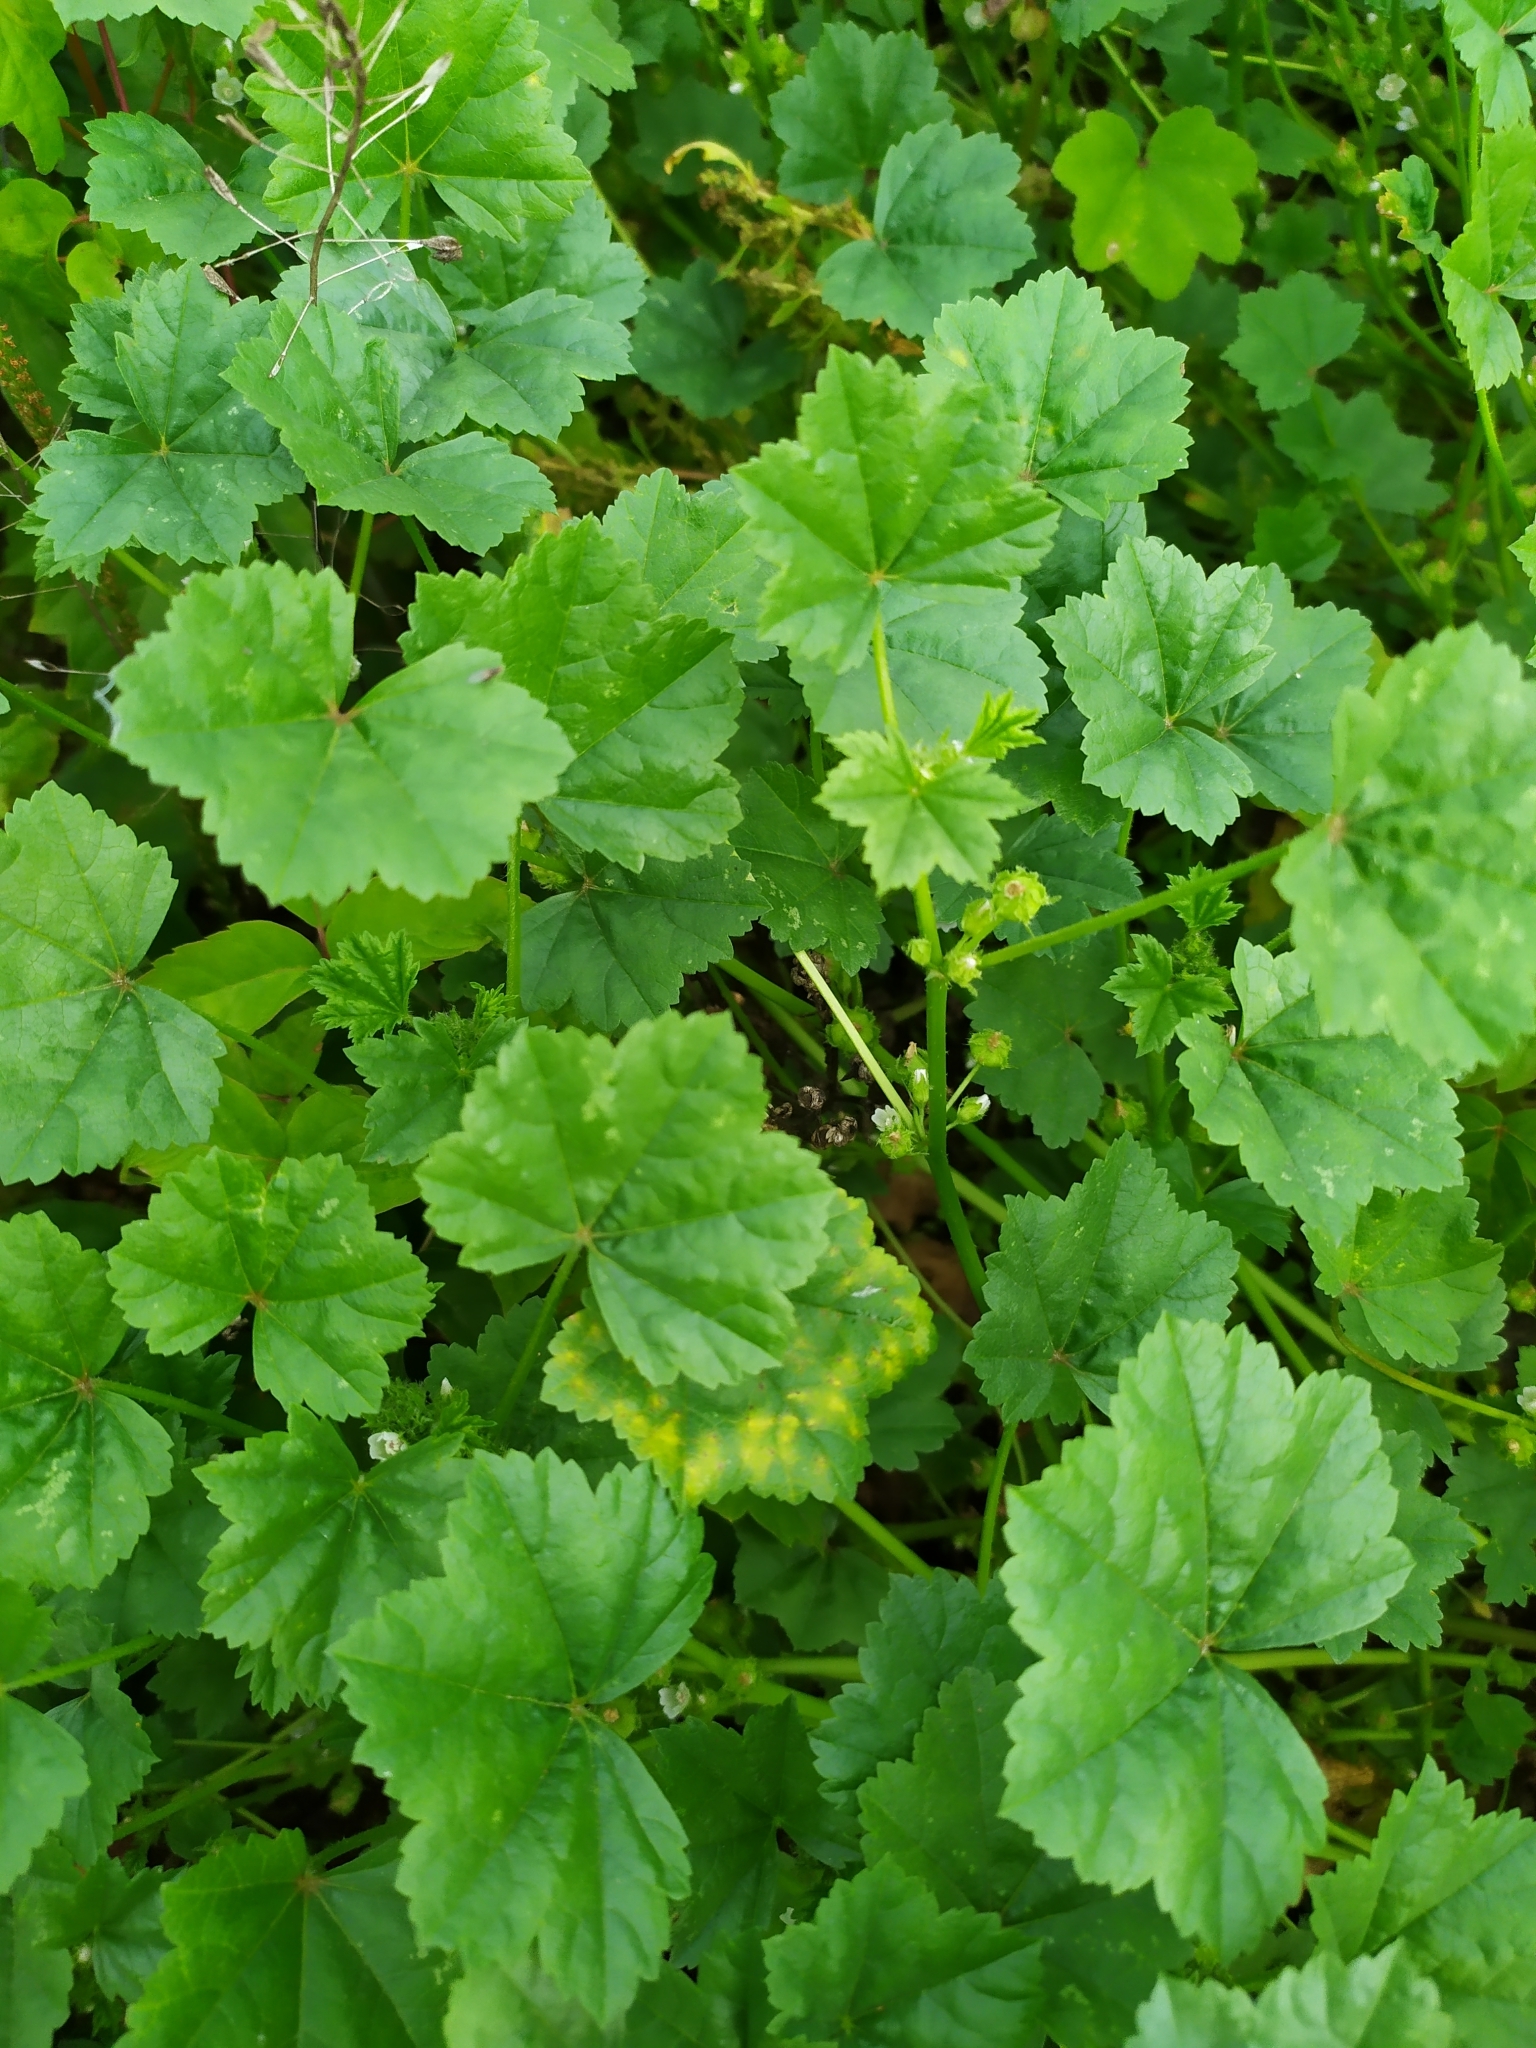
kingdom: Plantae
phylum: Tracheophyta
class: Magnoliopsida
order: Malvales
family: Malvaceae
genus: Malva
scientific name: Malva pusilla
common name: Small mallow
